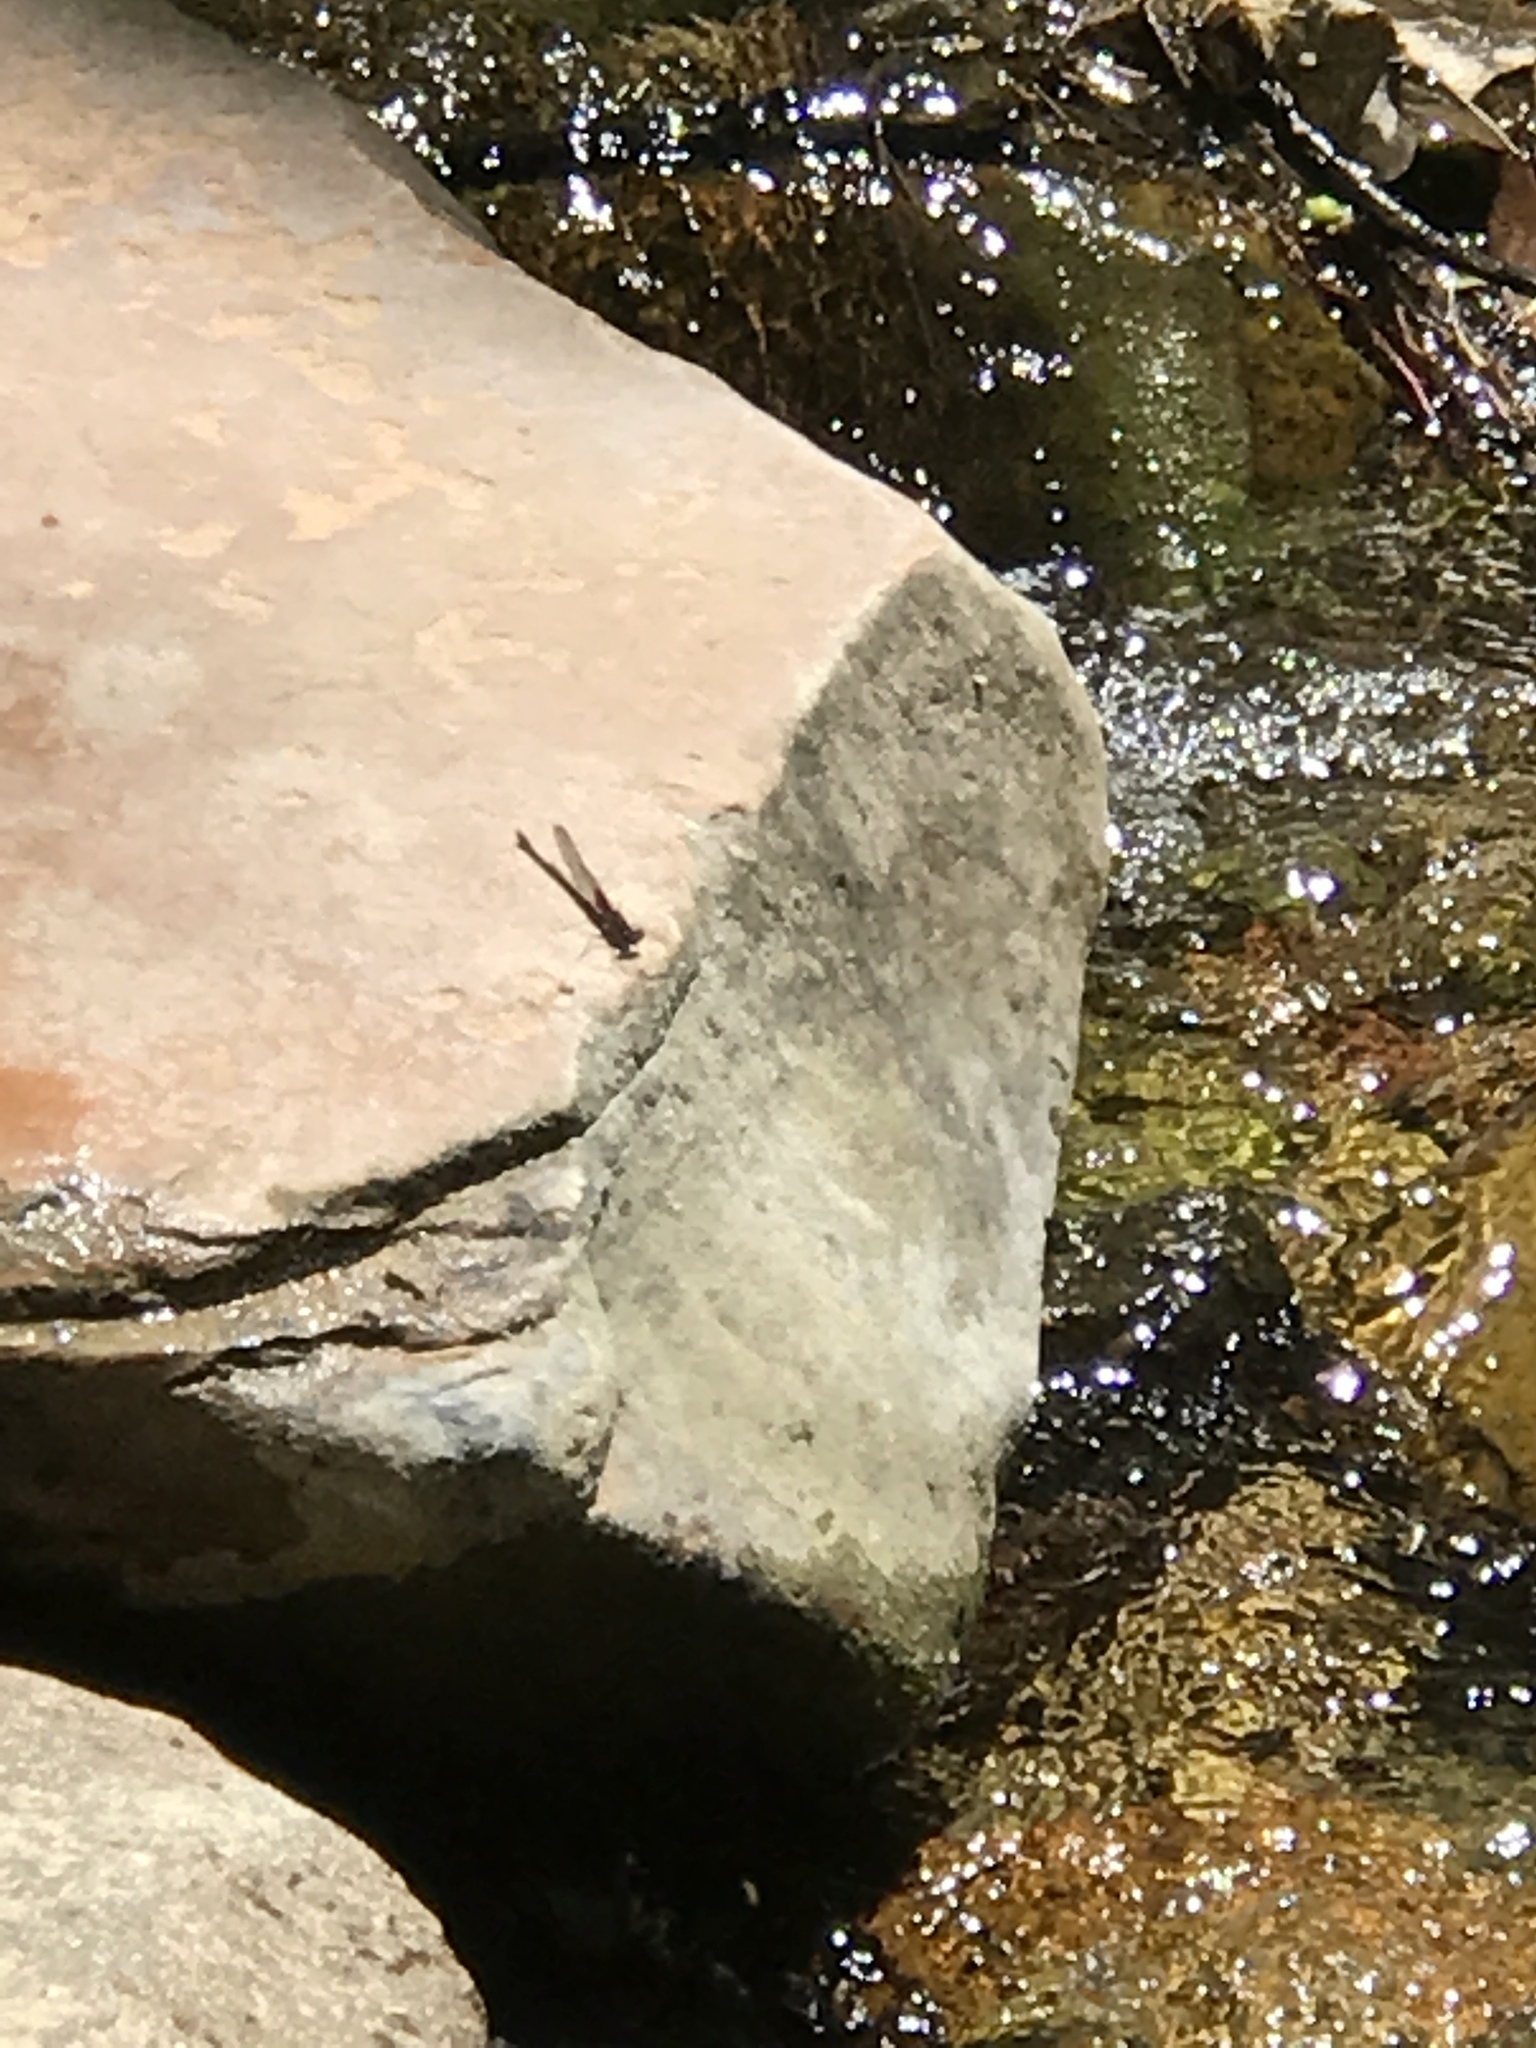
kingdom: Animalia
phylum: Arthropoda
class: Insecta
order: Odonata
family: Calopterygidae
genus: Hetaerina
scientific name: Hetaerina
